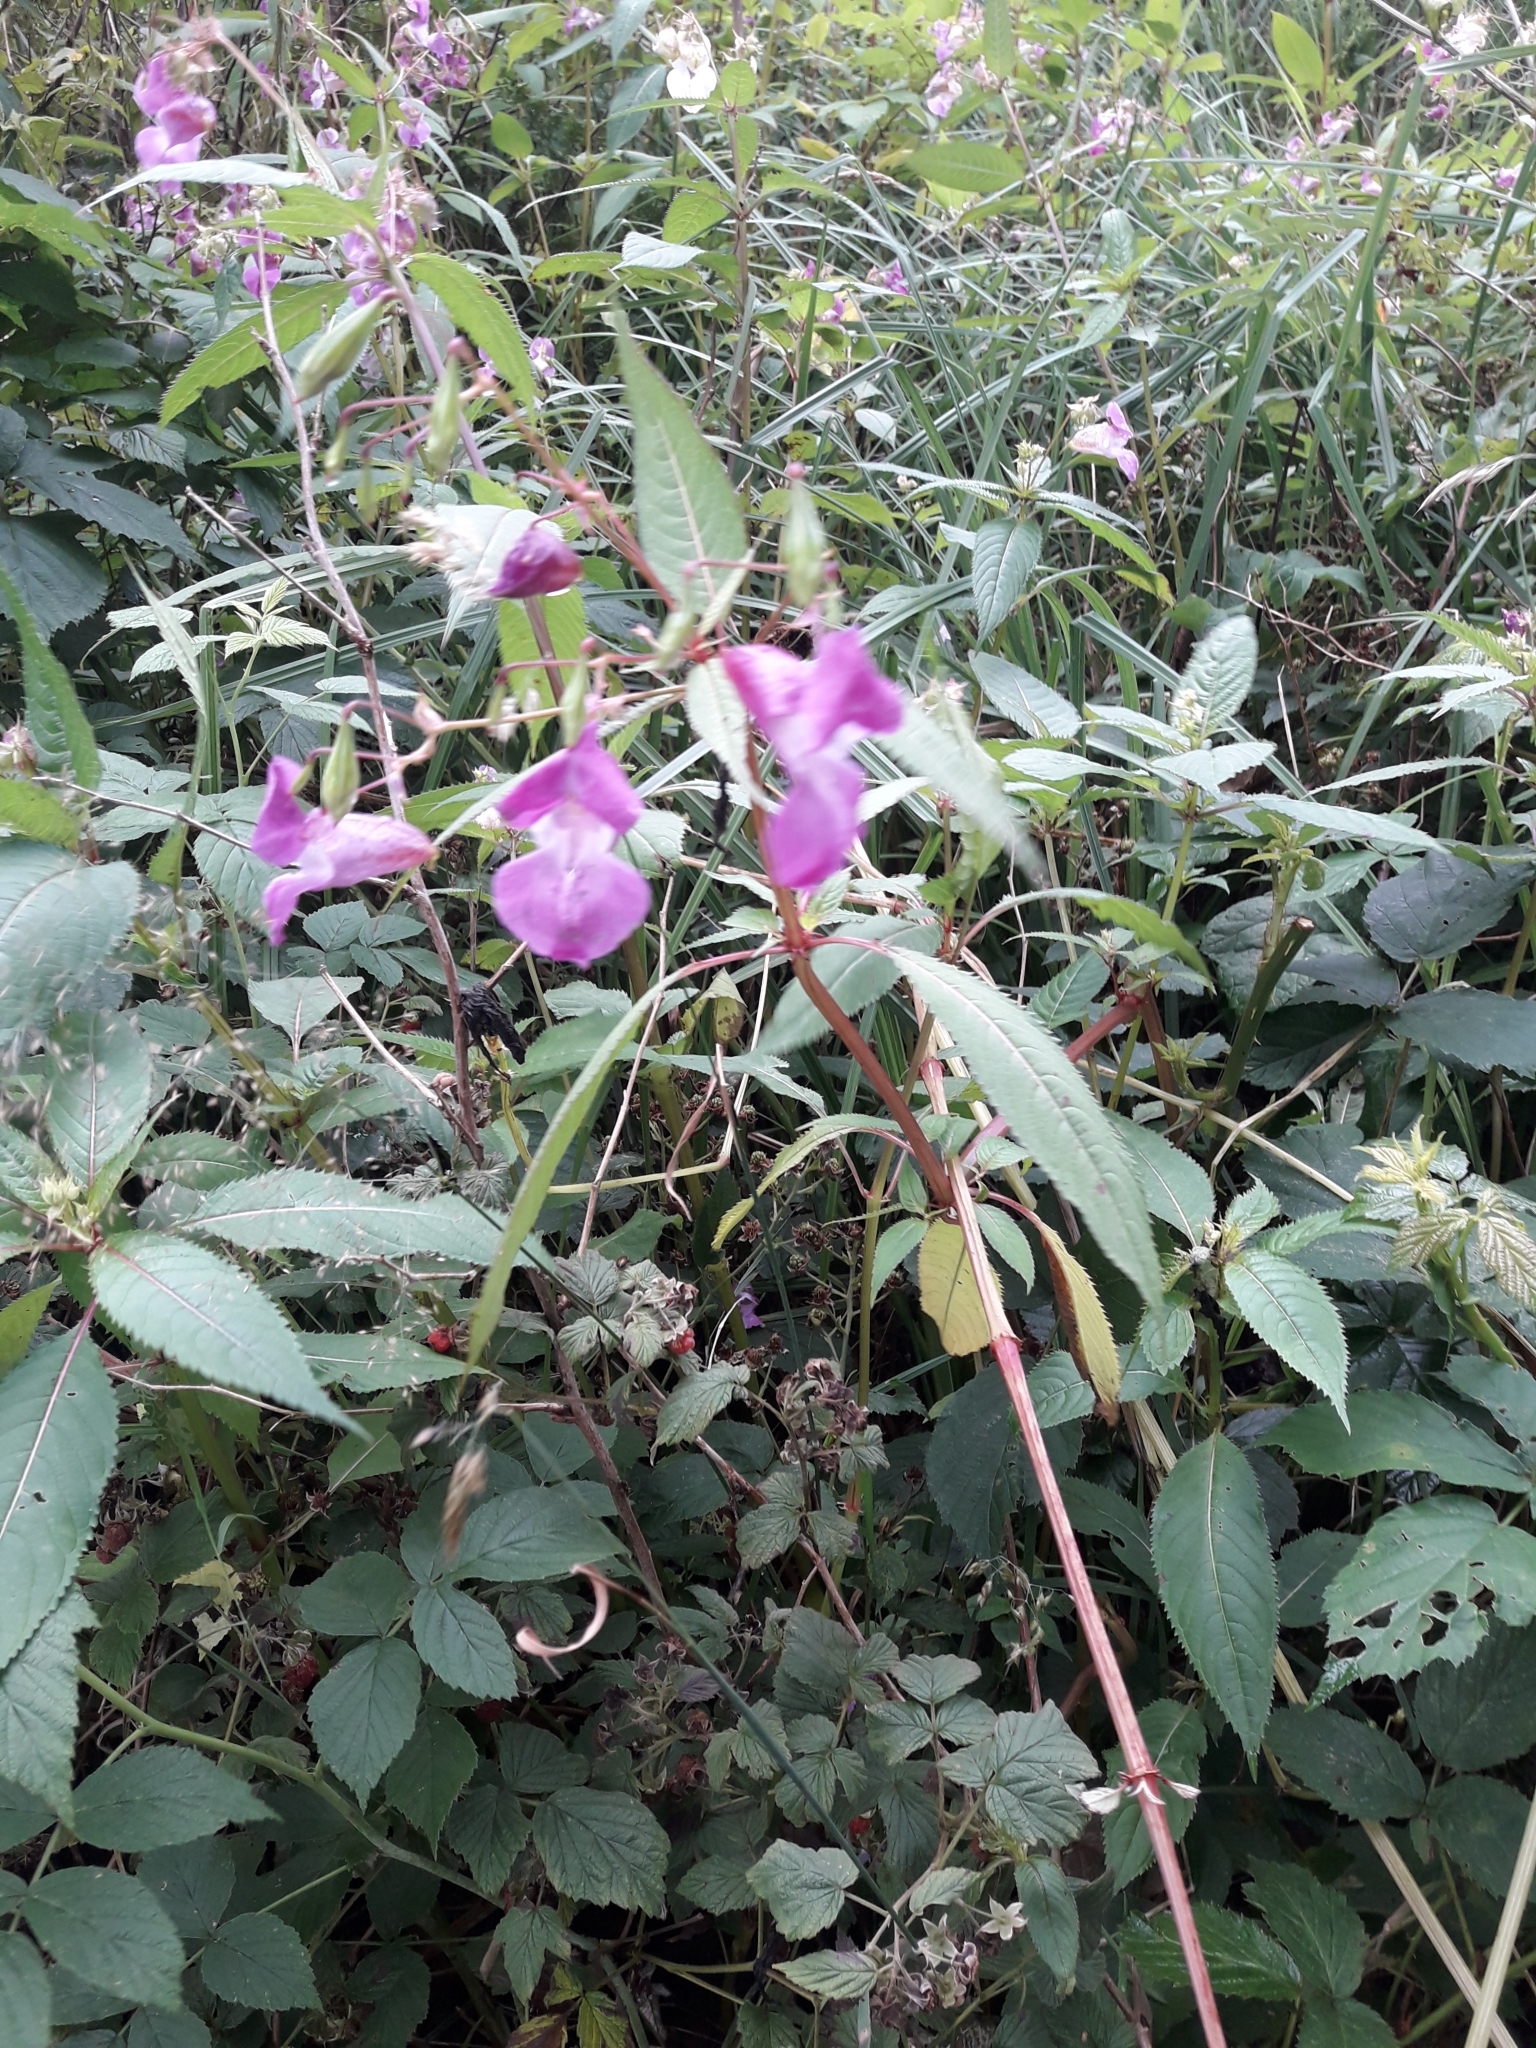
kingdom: Plantae
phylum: Tracheophyta
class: Magnoliopsida
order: Ericales
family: Balsaminaceae
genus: Impatiens
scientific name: Impatiens glandulifera
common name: Himalayan balsam
